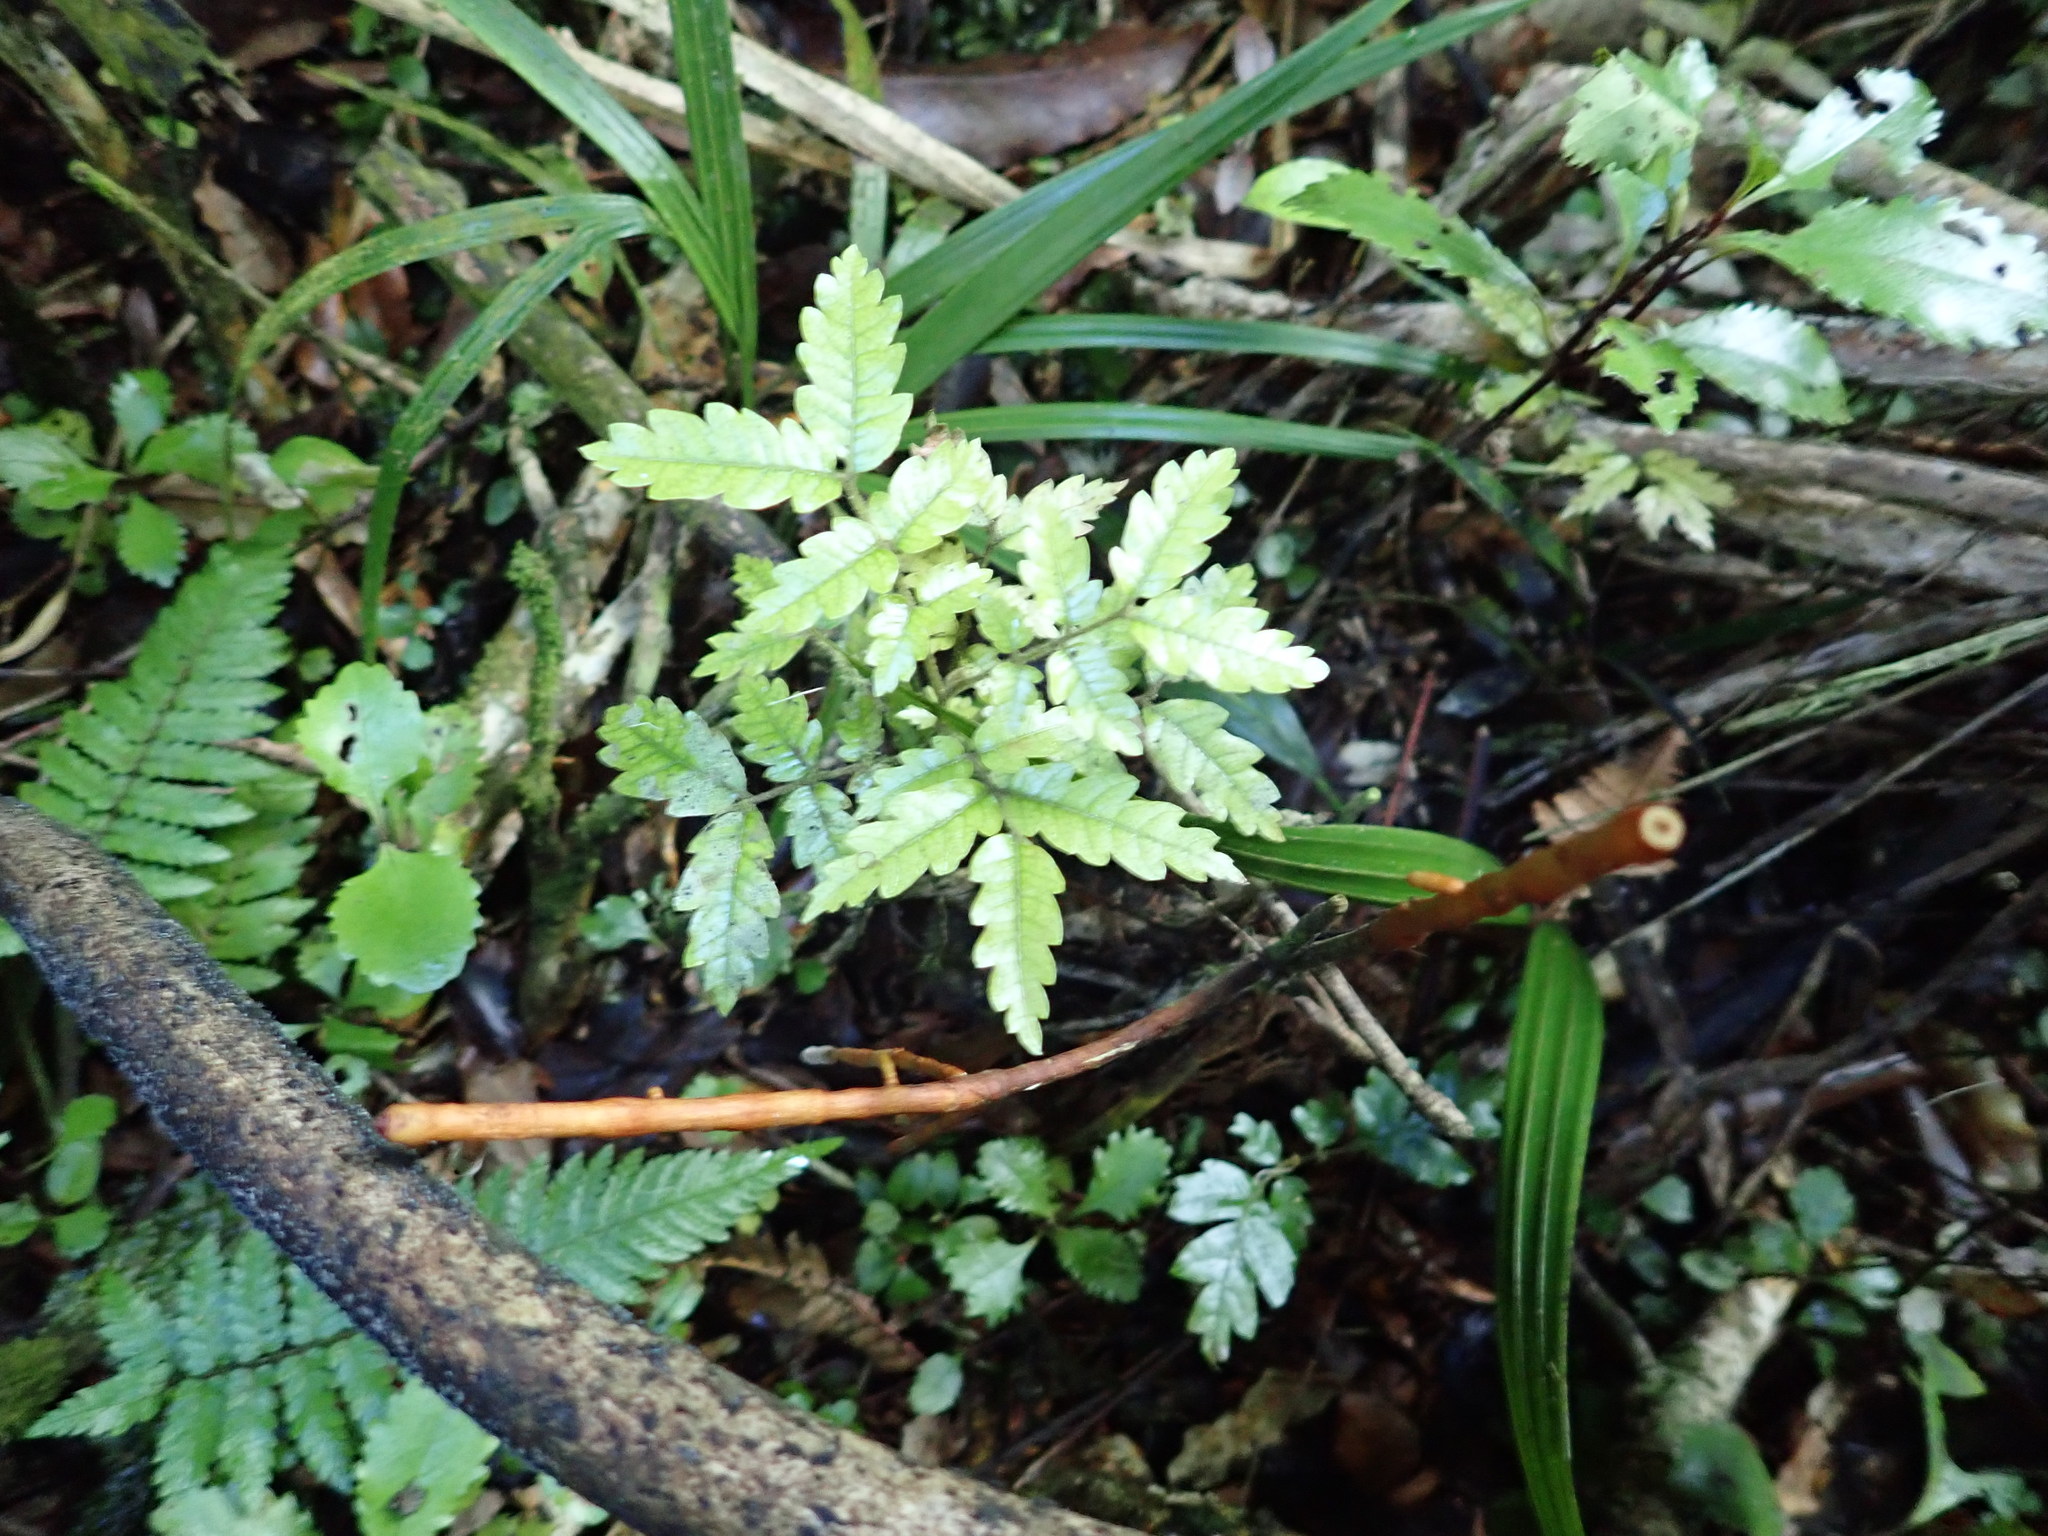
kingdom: Plantae
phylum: Tracheophyta
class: Magnoliopsida
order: Sapindales
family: Sapindaceae
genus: Alectryon
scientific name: Alectryon excelsus
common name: Three kings titoki
